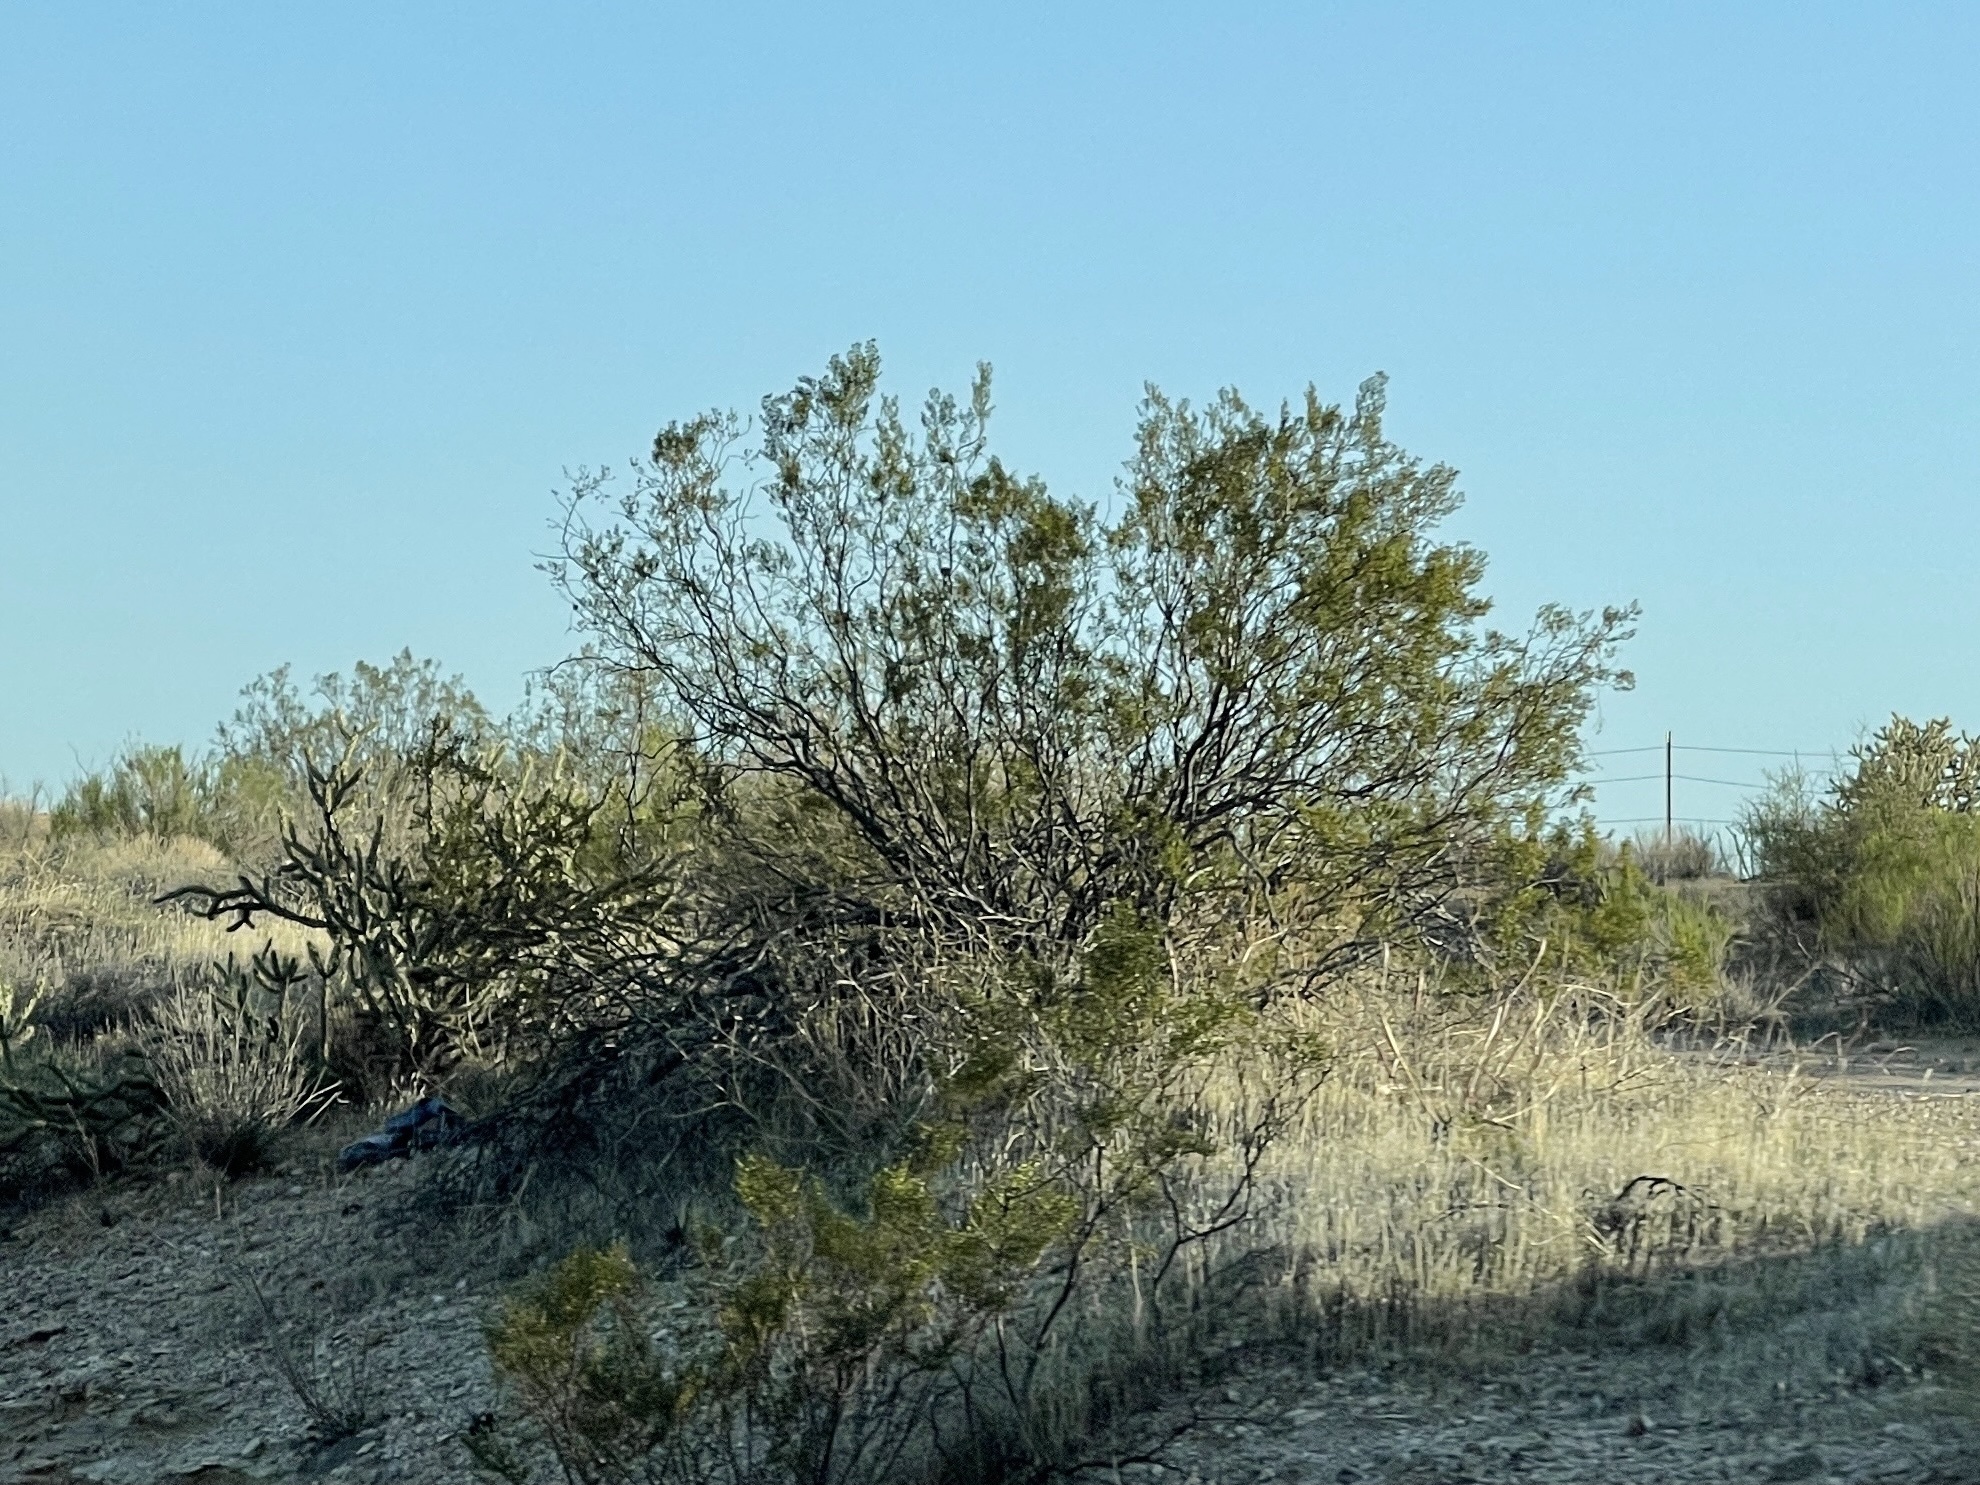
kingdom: Plantae
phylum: Tracheophyta
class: Magnoliopsida
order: Zygophyllales
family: Zygophyllaceae
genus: Larrea
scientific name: Larrea tridentata
